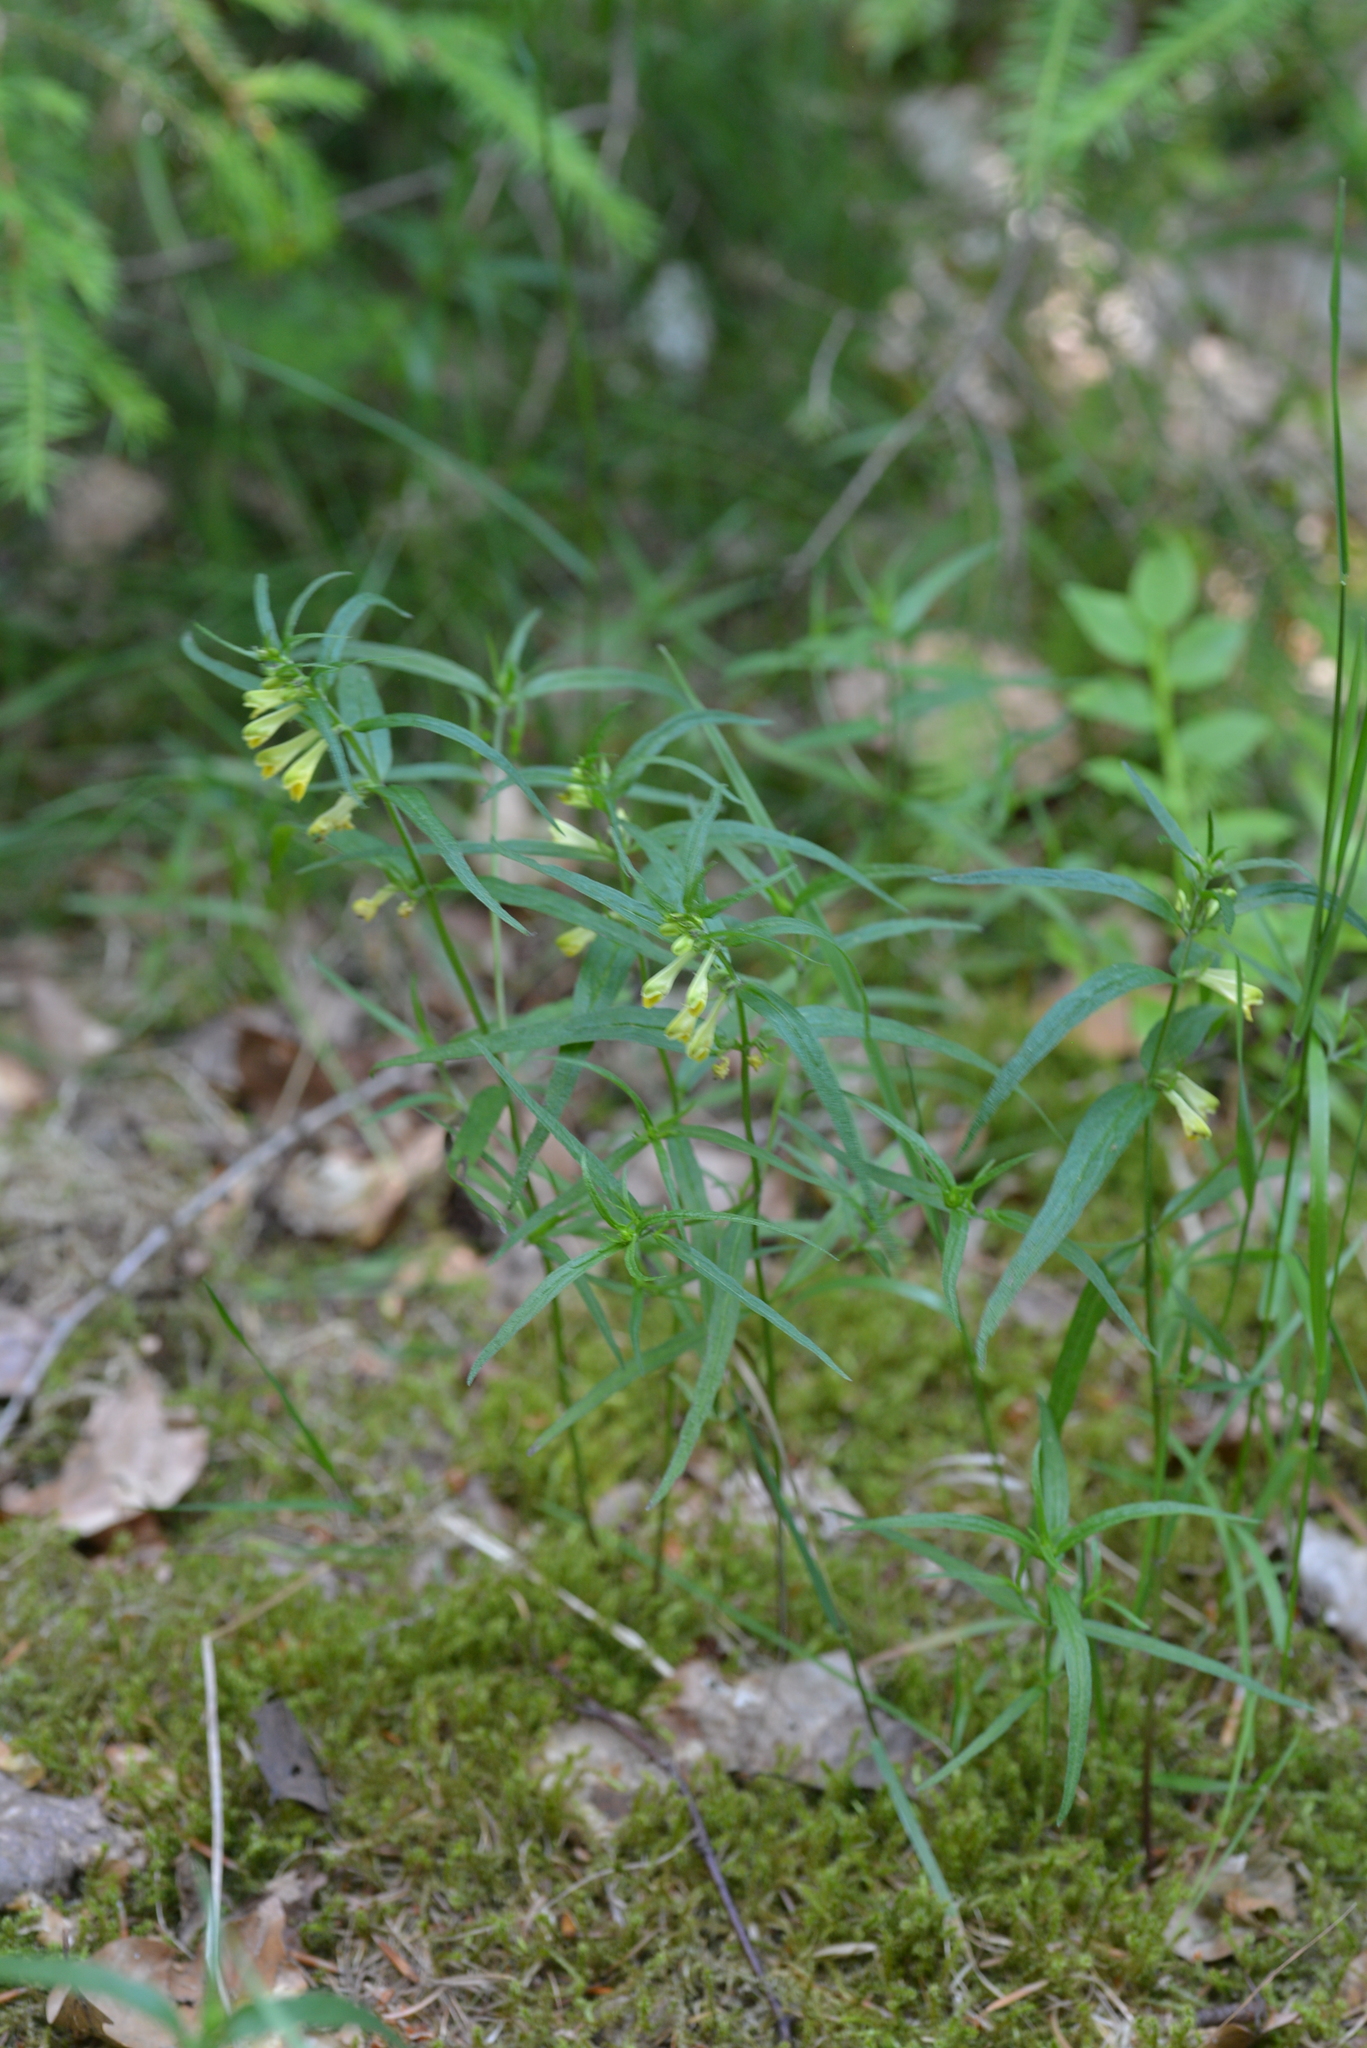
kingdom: Plantae
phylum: Tracheophyta
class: Magnoliopsida
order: Lamiales
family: Orobanchaceae
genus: Melampyrum
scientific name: Melampyrum pratense
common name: Common cow-wheat
